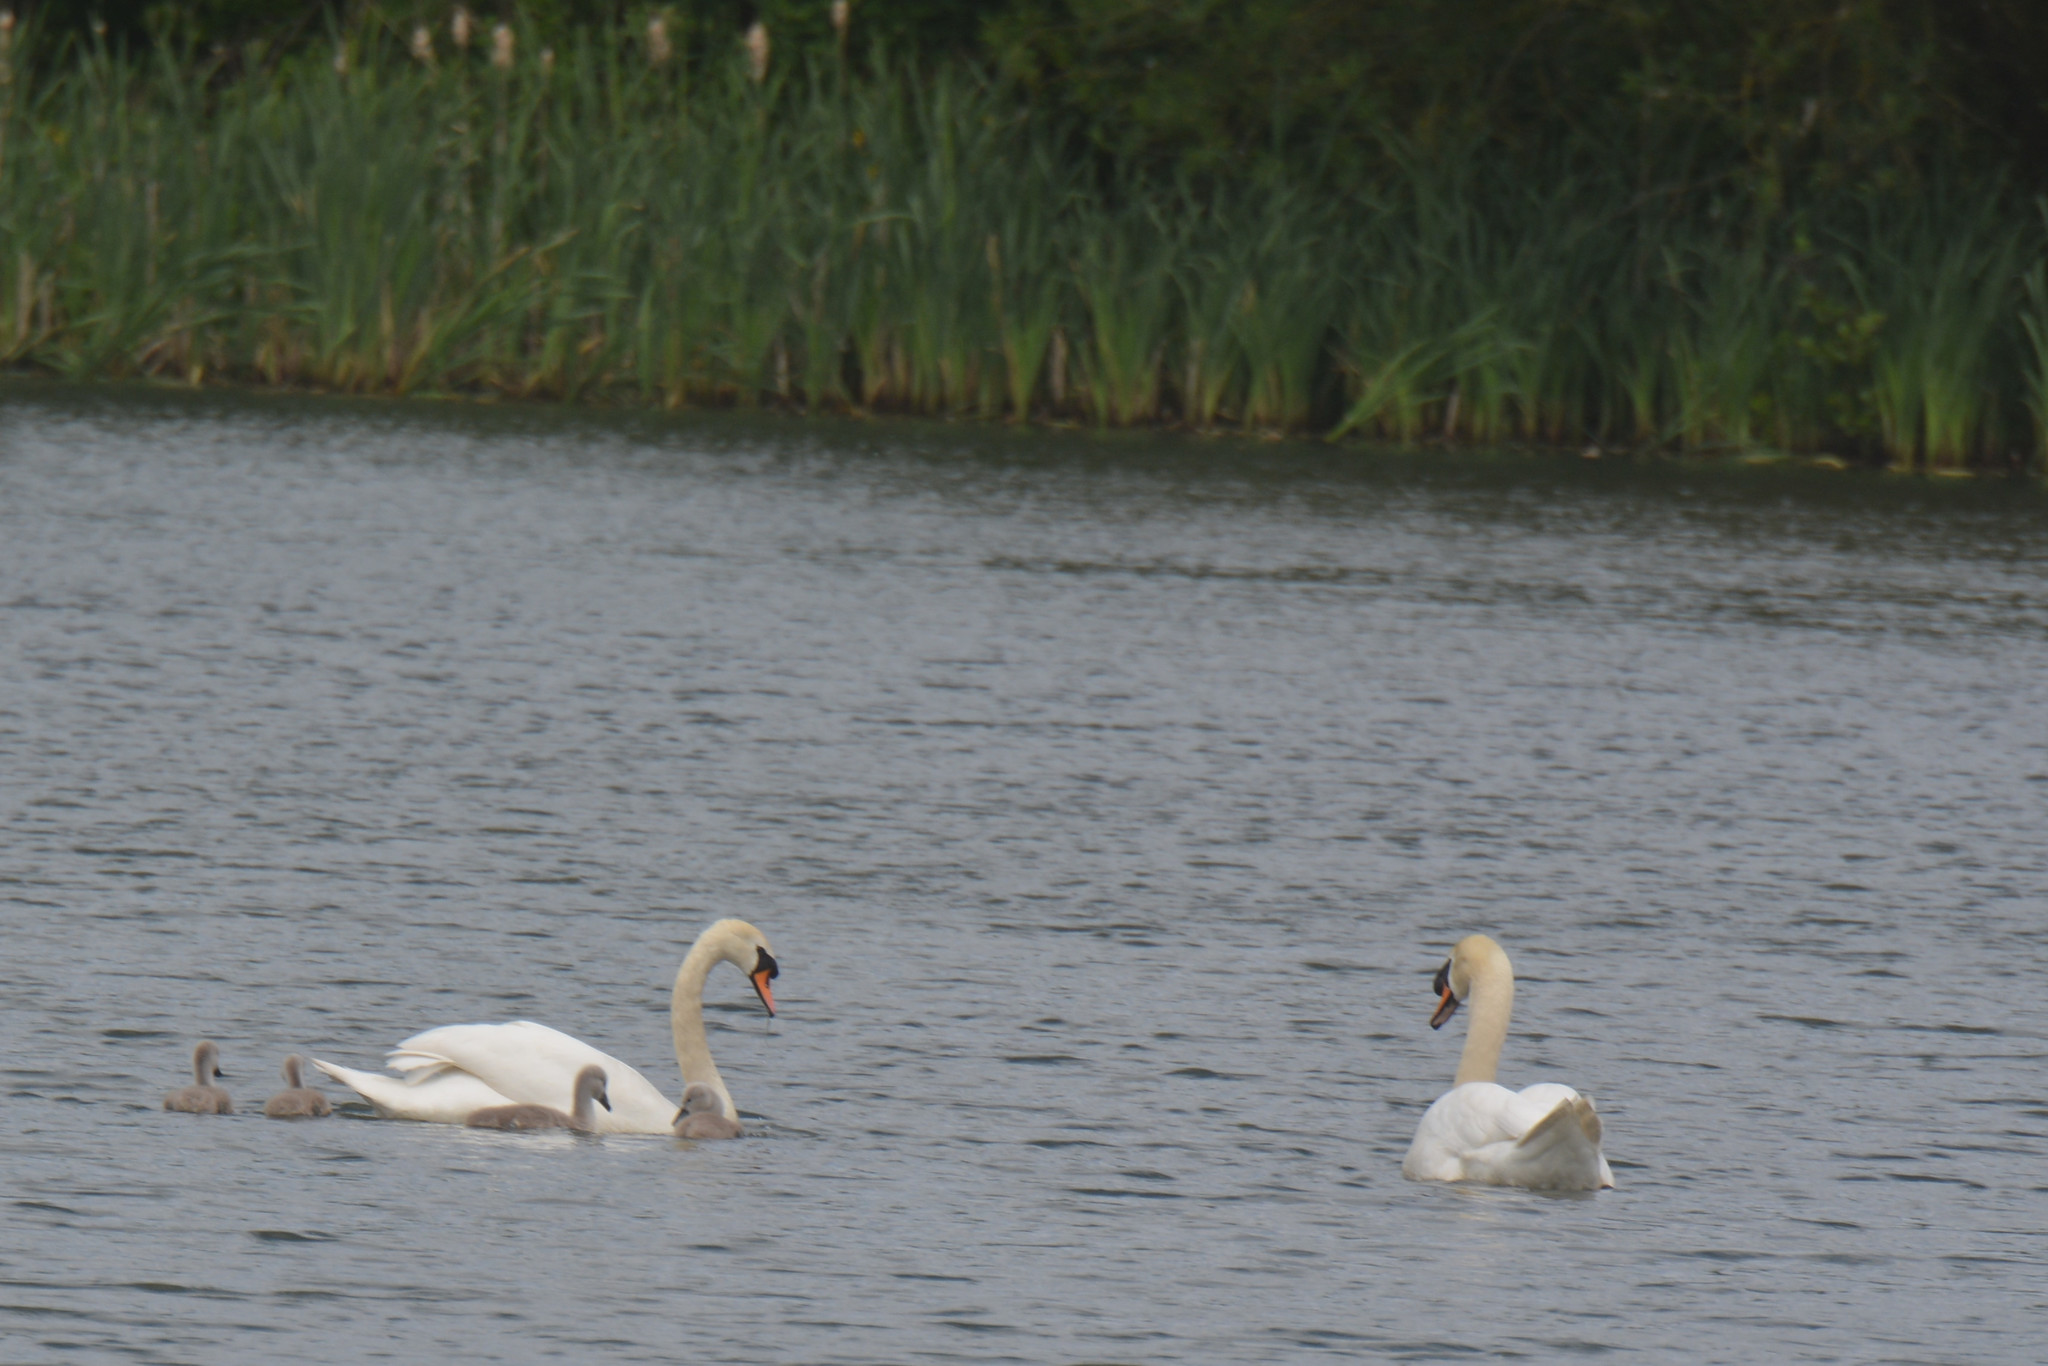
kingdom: Animalia
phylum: Chordata
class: Aves
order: Anseriformes
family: Anatidae
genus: Cygnus
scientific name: Cygnus olor
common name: Mute swan
